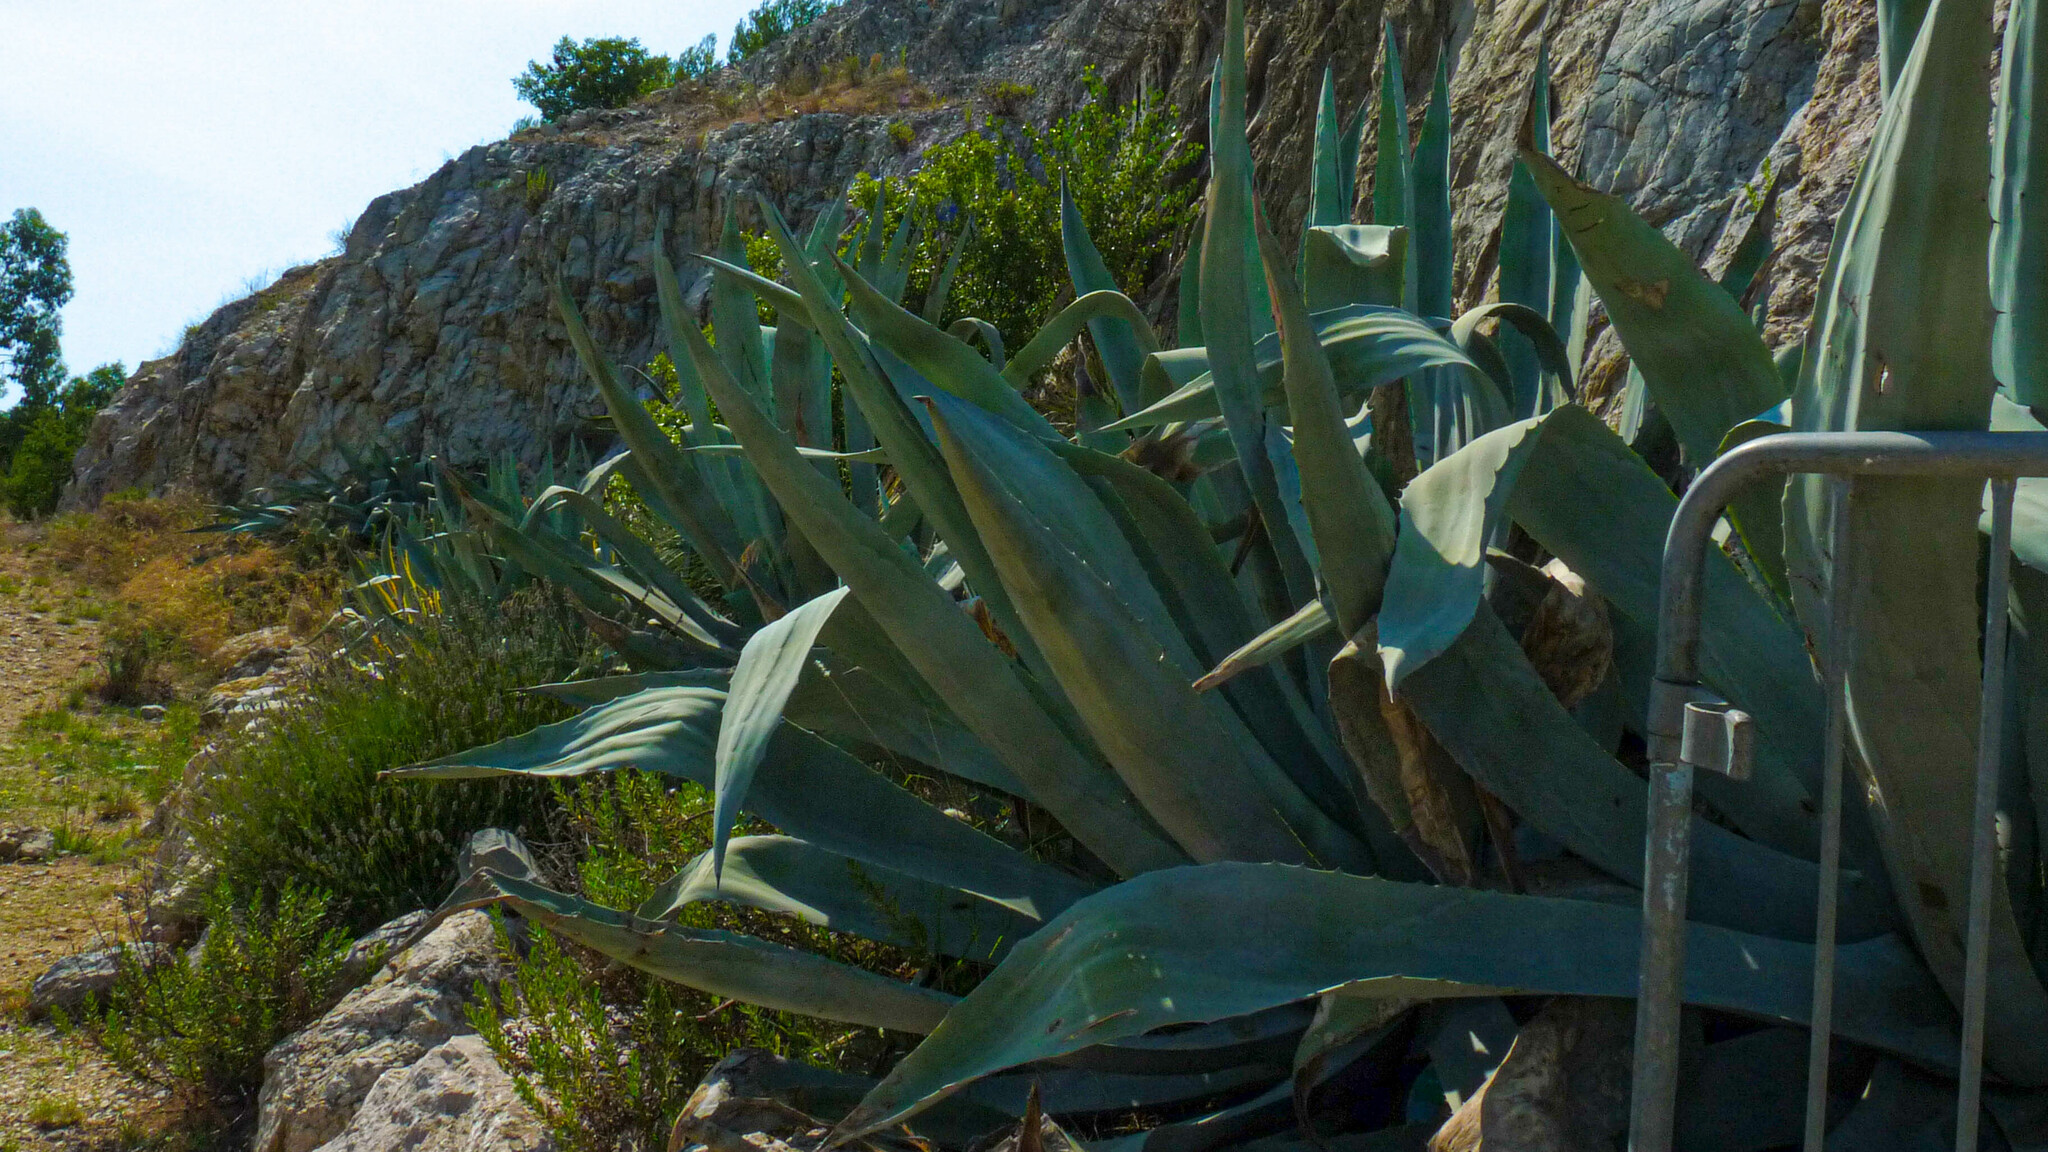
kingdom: Plantae
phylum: Tracheophyta
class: Liliopsida
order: Asparagales
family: Asparagaceae
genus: Agave
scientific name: Agave americana
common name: Centuryplant
